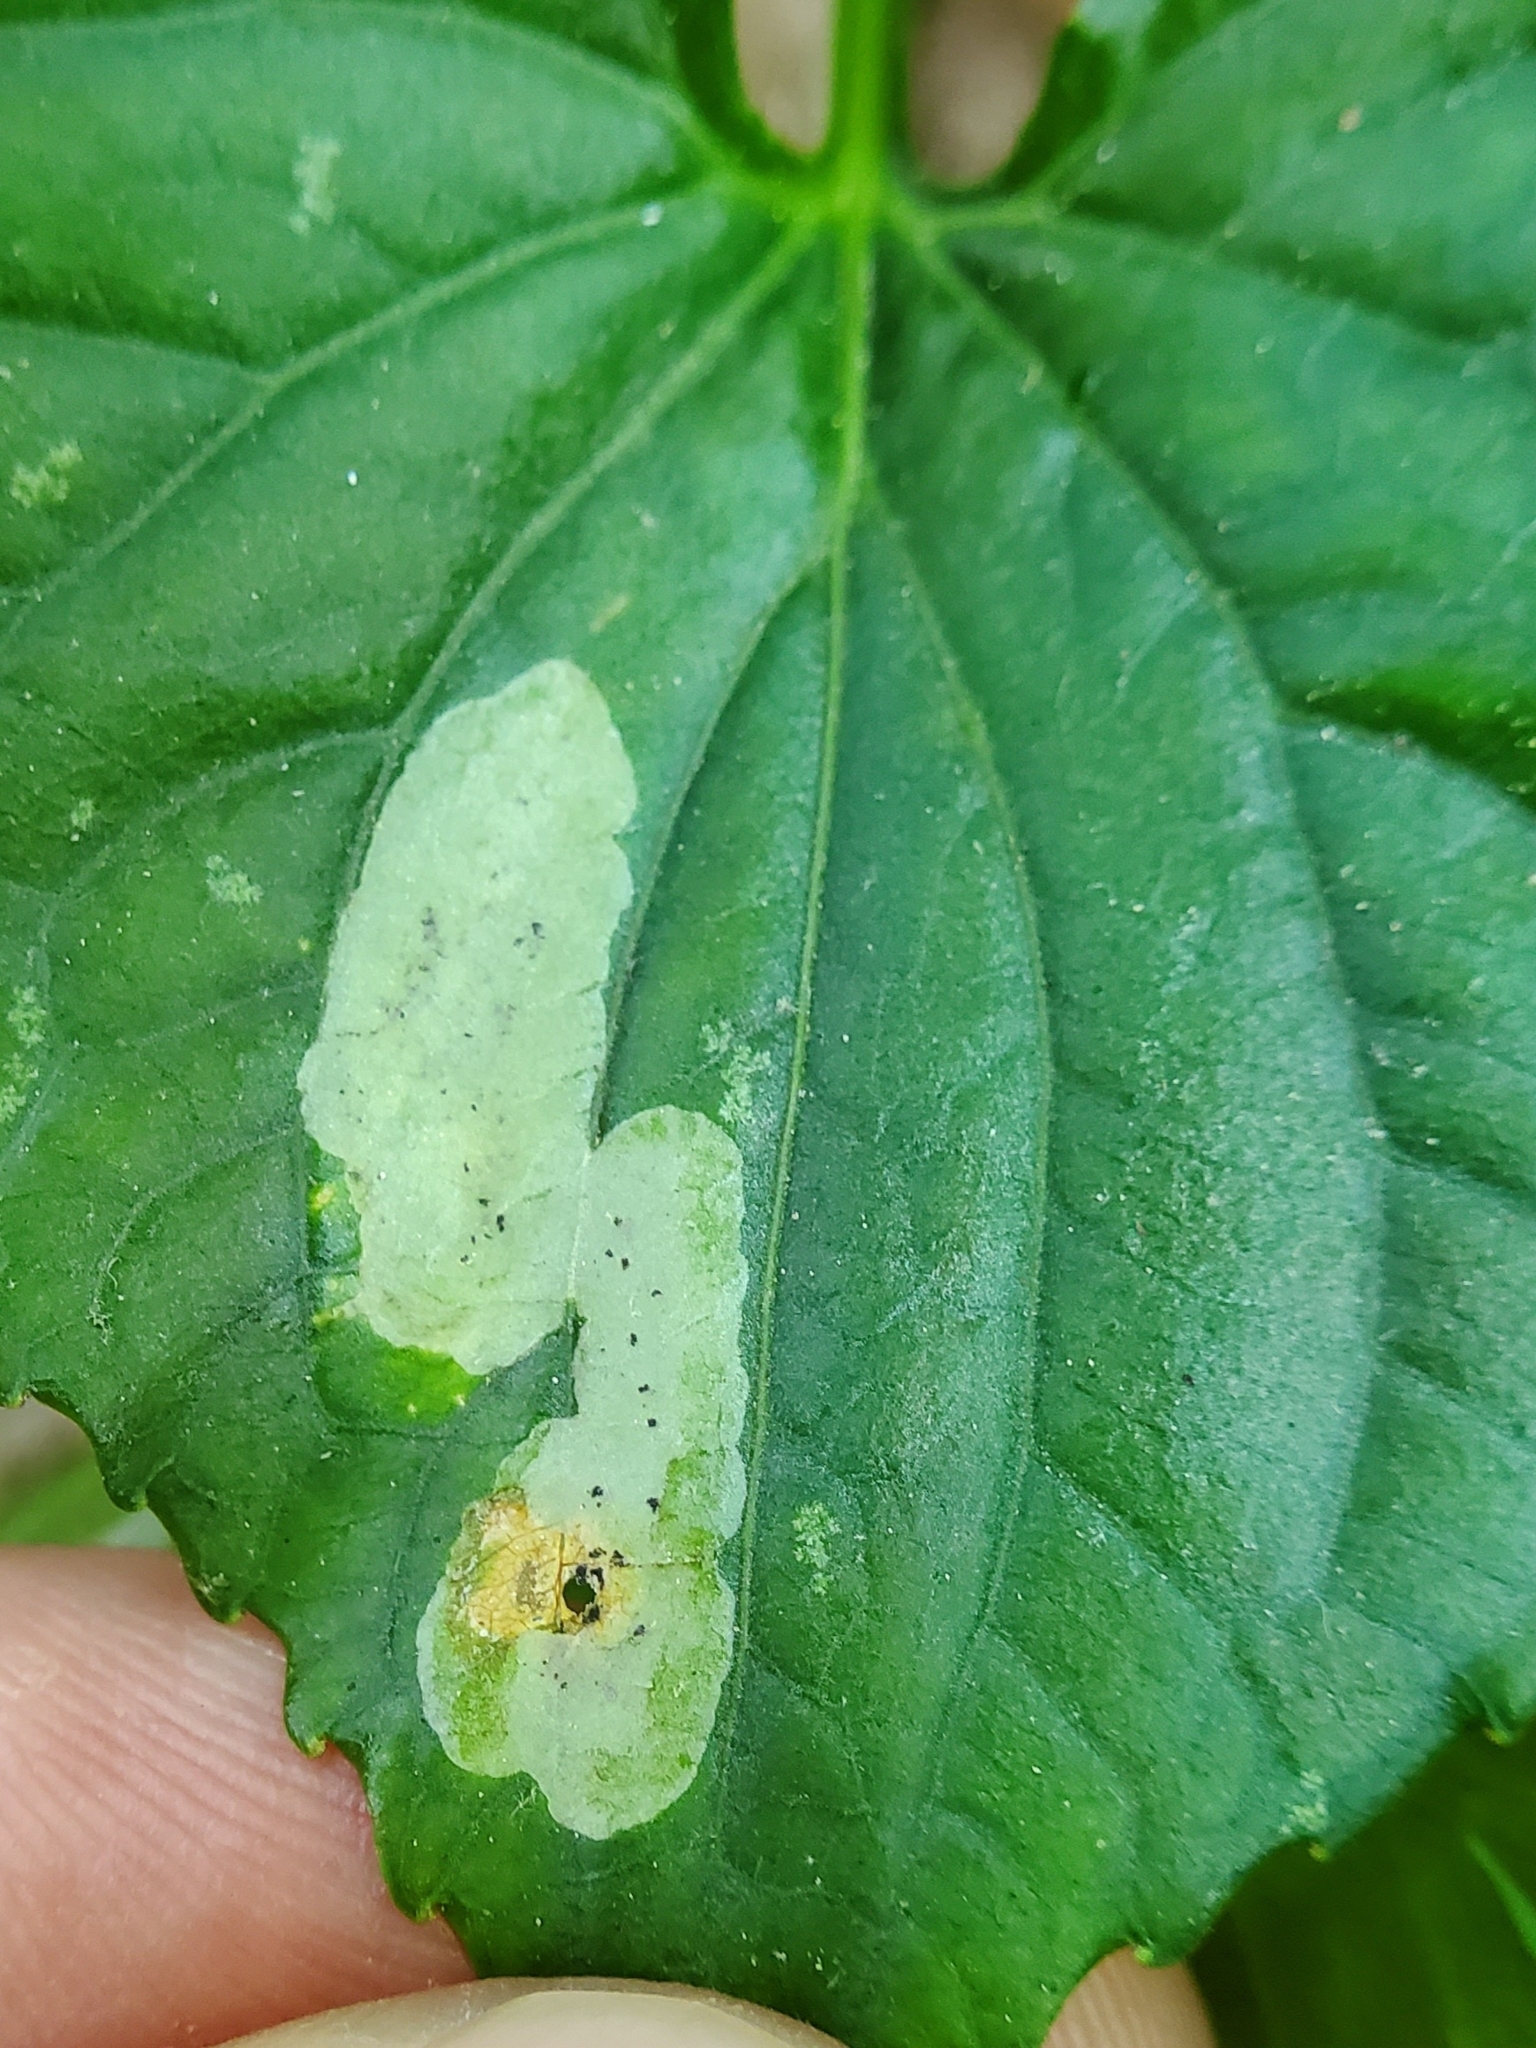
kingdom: Animalia
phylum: Arthropoda
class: Insecta
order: Diptera
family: Agromyzidae
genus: Liriomyza
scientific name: Liriomyza violivora
